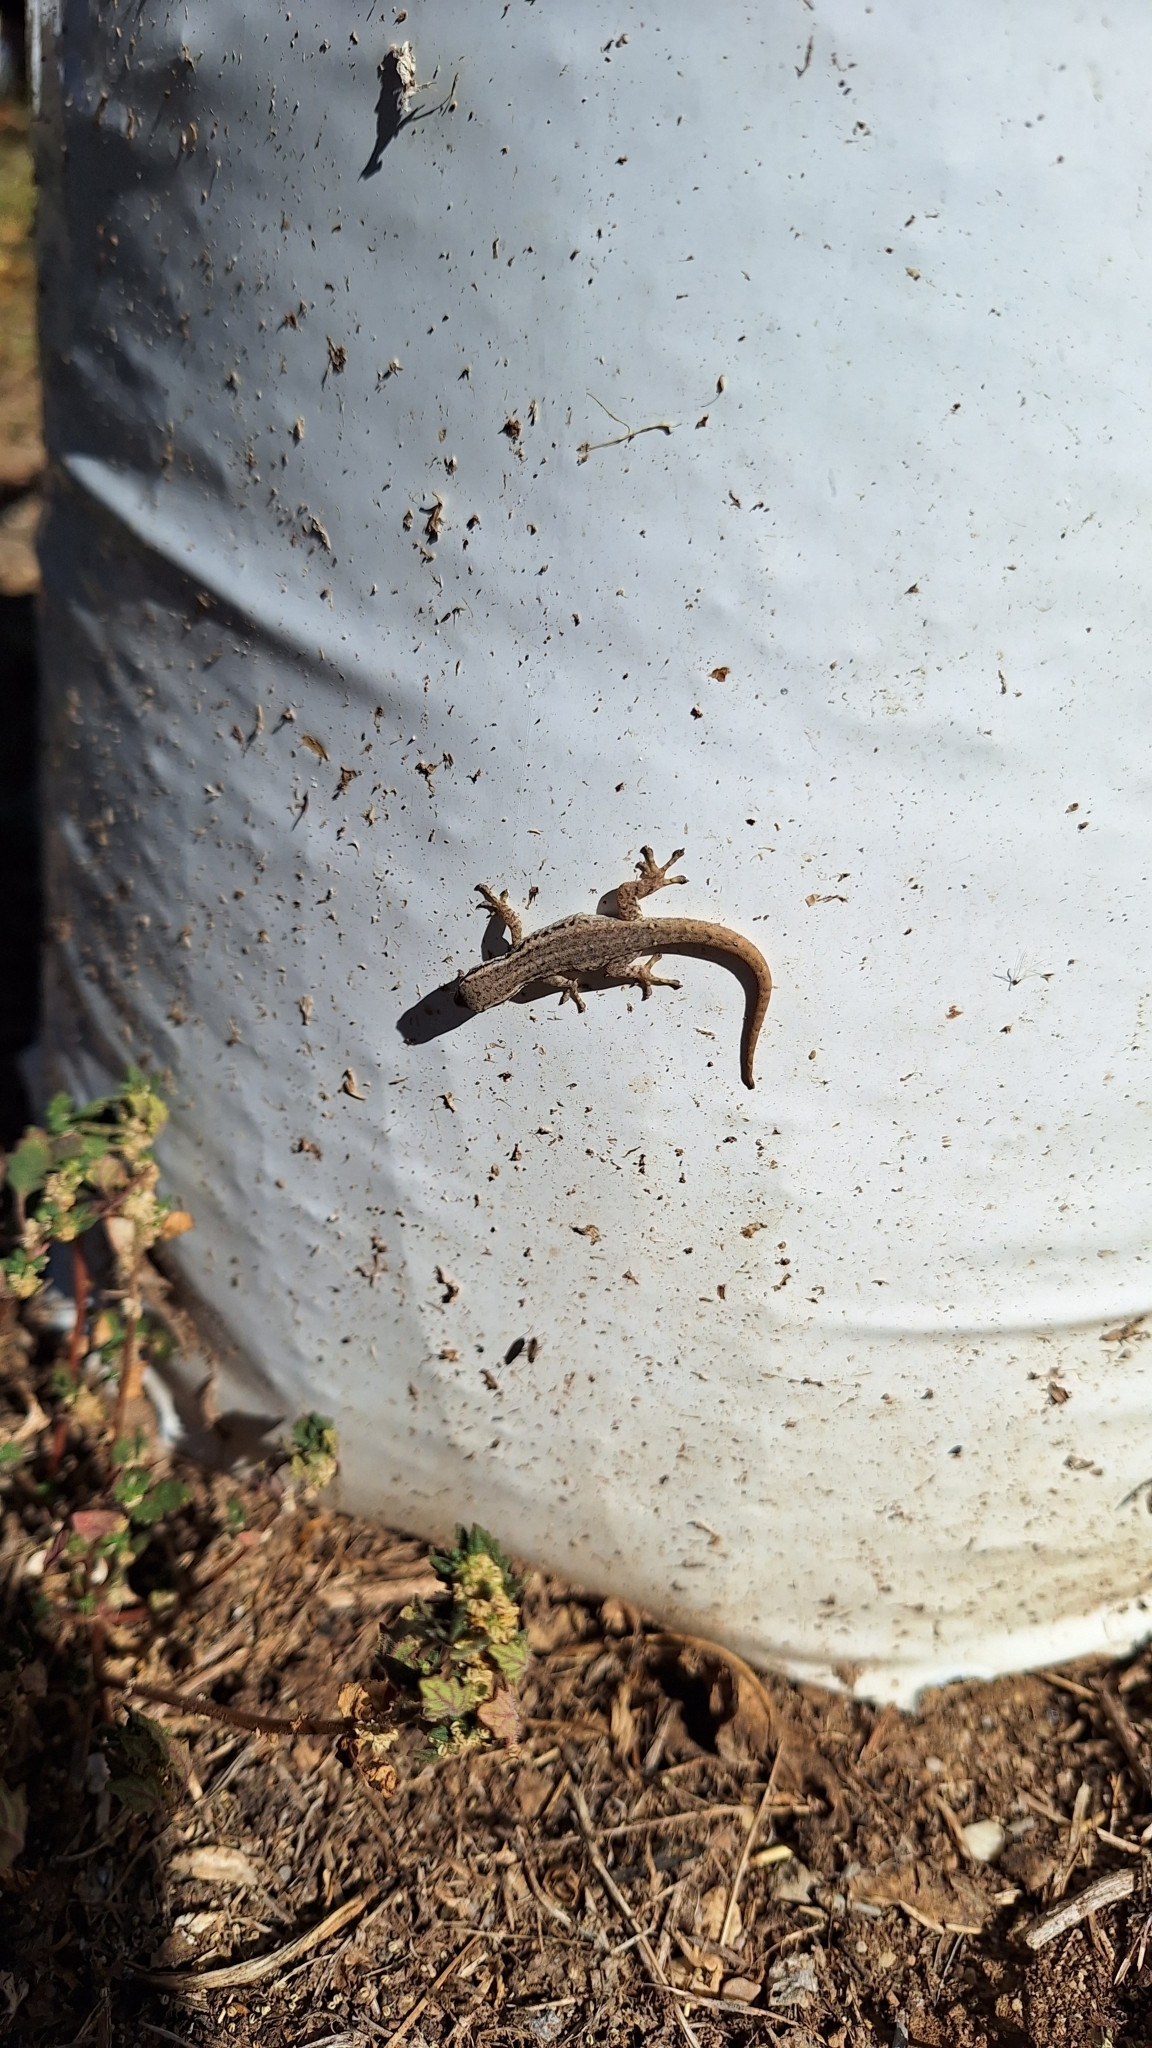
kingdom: Animalia
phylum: Chordata
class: Squamata
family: Gekkonidae
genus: Lygodactylus
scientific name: Lygodactylus capensis
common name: Cape dwarf gecko
